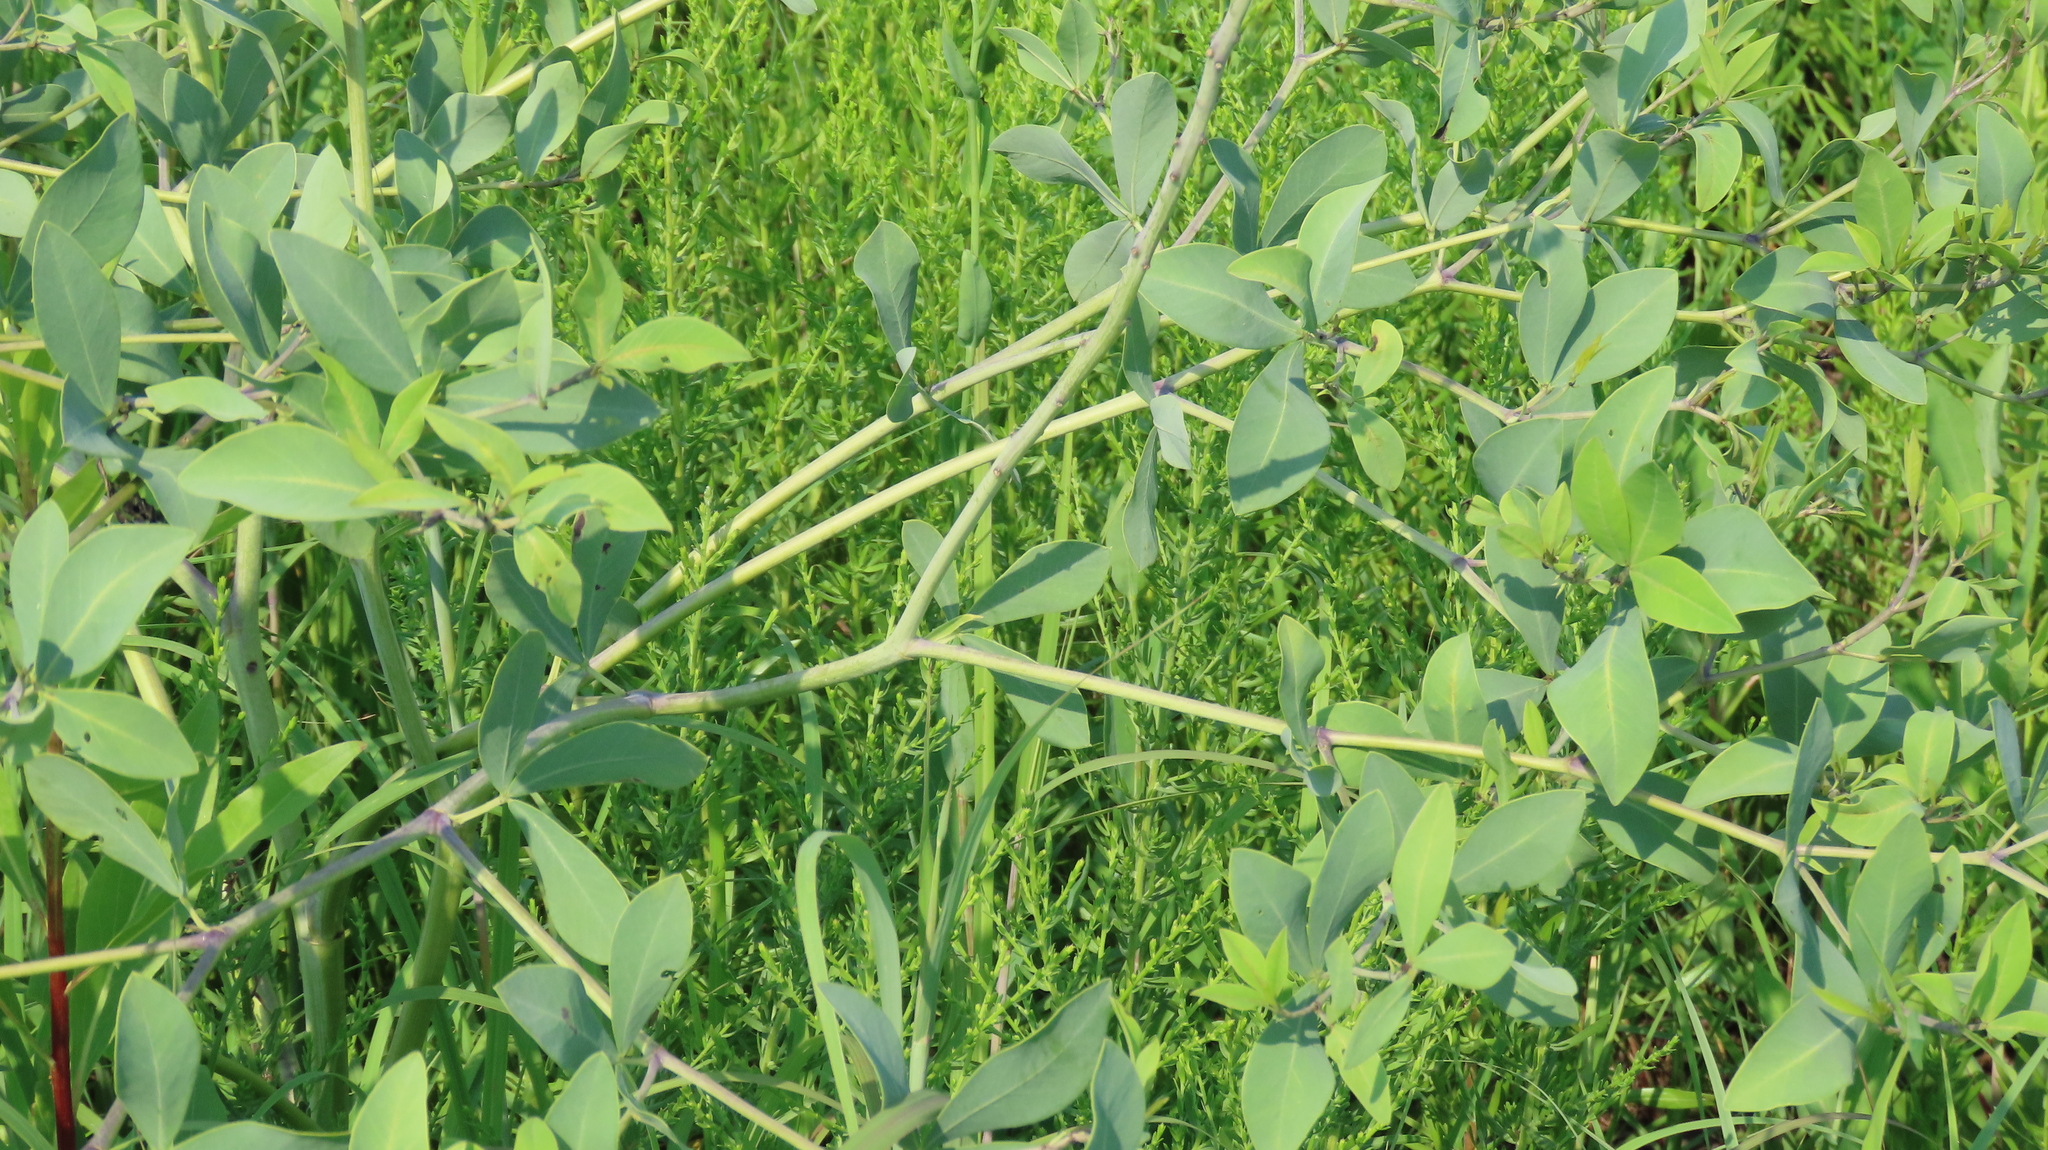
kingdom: Plantae
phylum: Tracheophyta
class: Magnoliopsida
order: Fabales
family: Fabaceae
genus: Baptisia
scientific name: Baptisia alba
